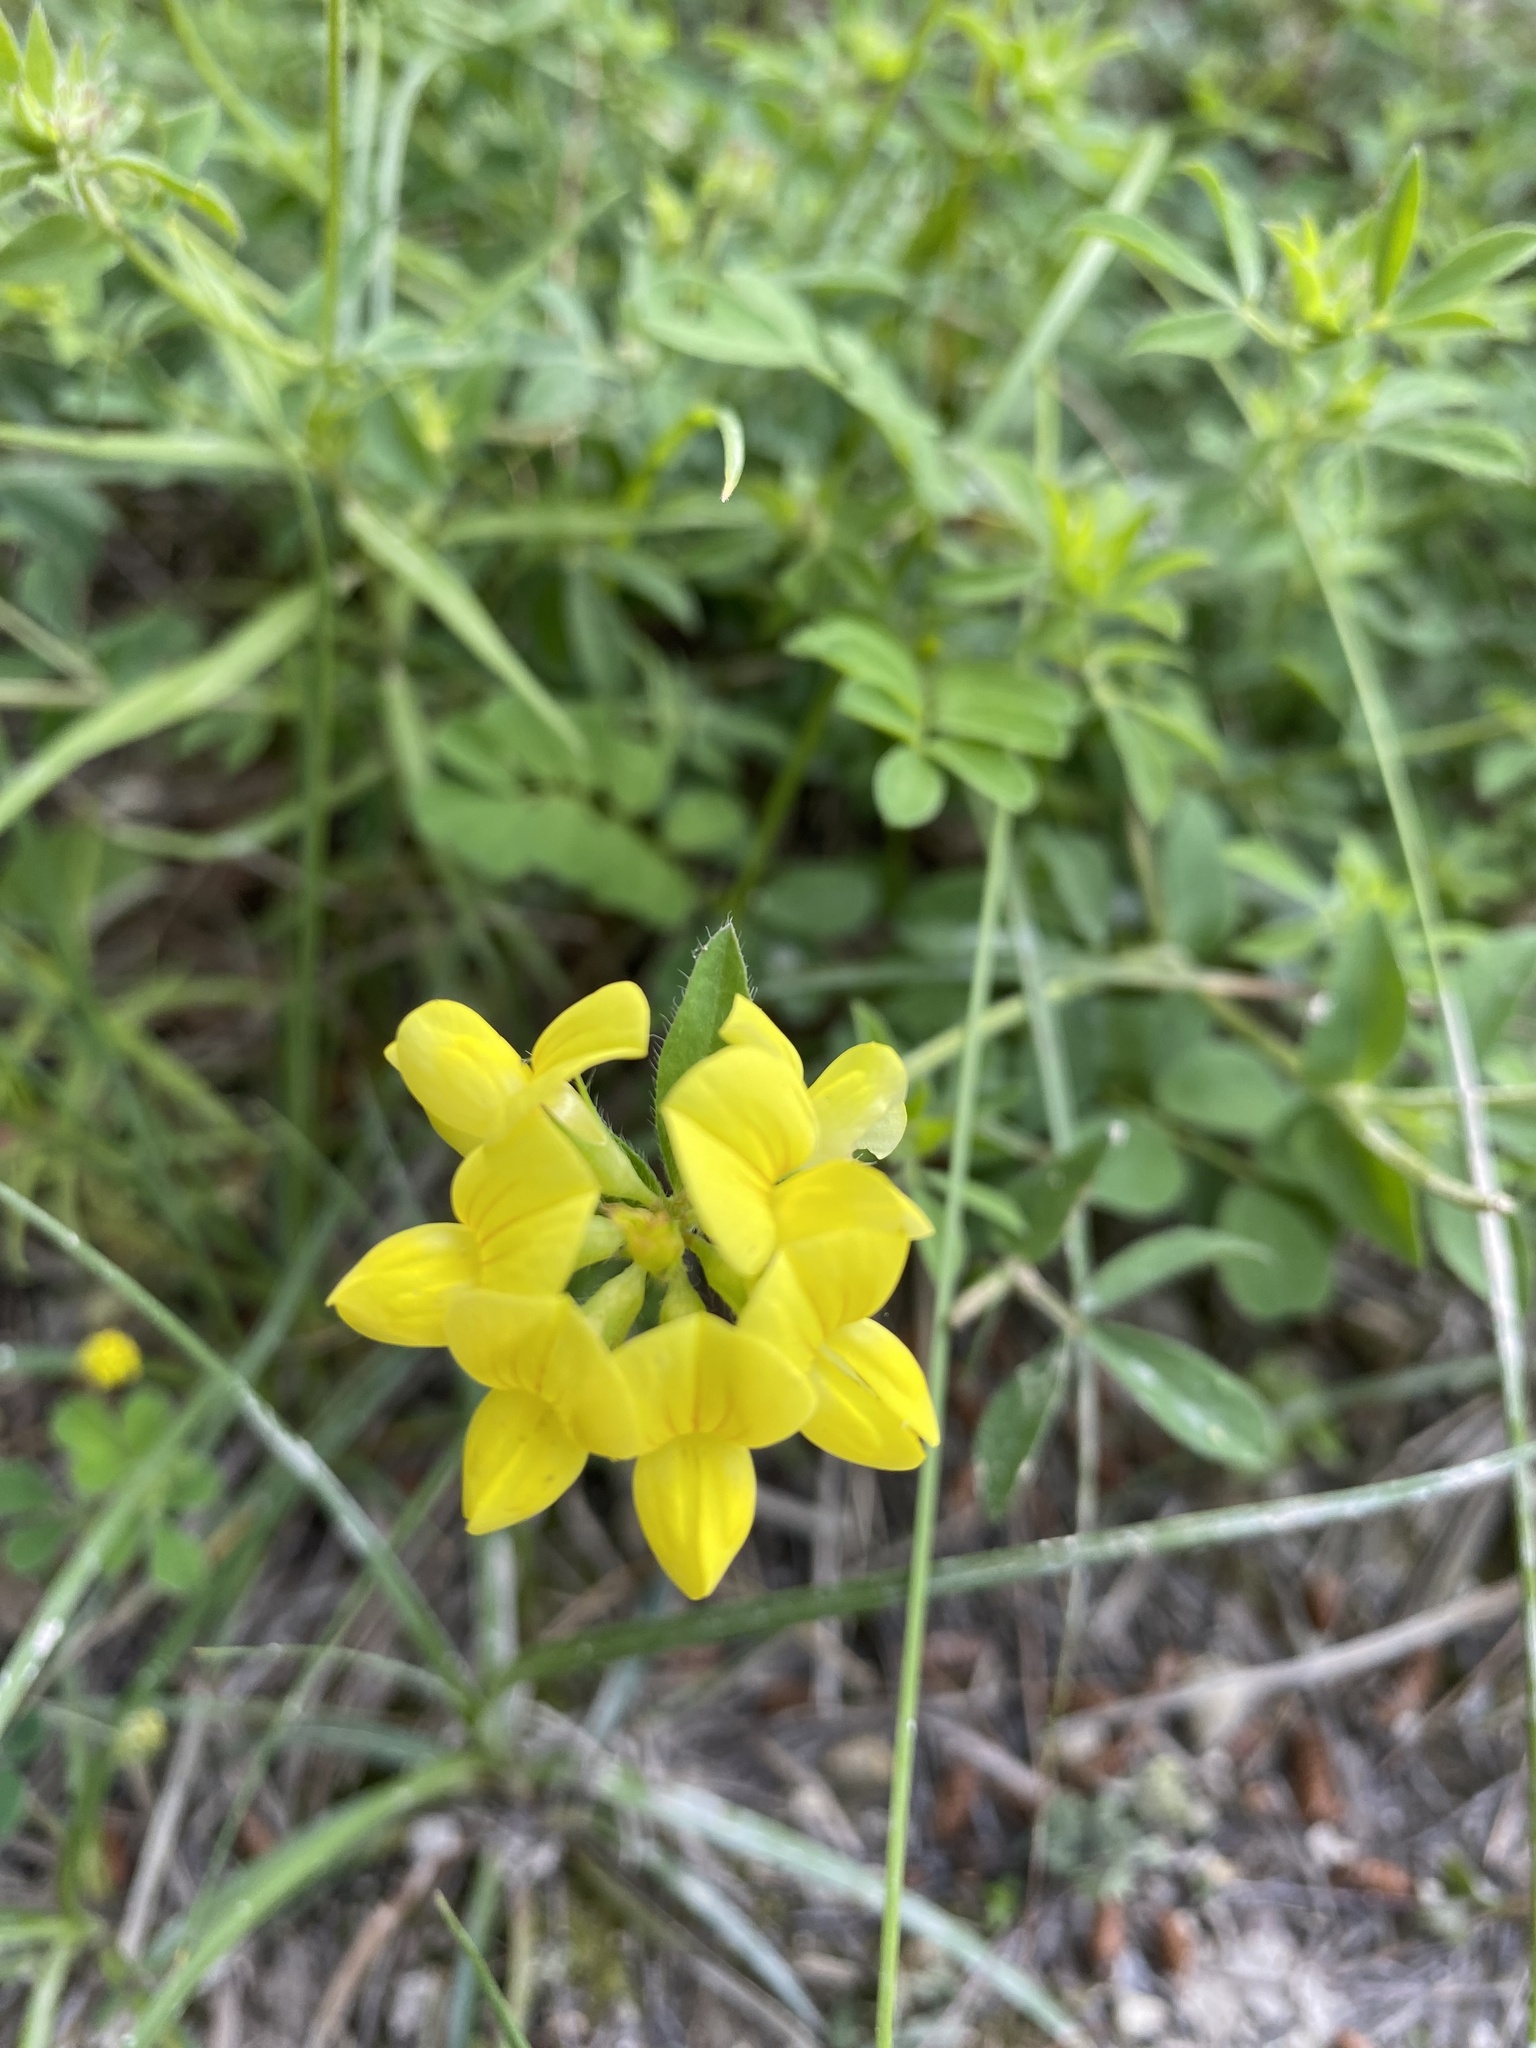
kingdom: Plantae
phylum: Tracheophyta
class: Magnoliopsida
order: Fabales
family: Fabaceae
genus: Lotus
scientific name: Lotus corniculatus
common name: Common bird's-foot-trefoil
